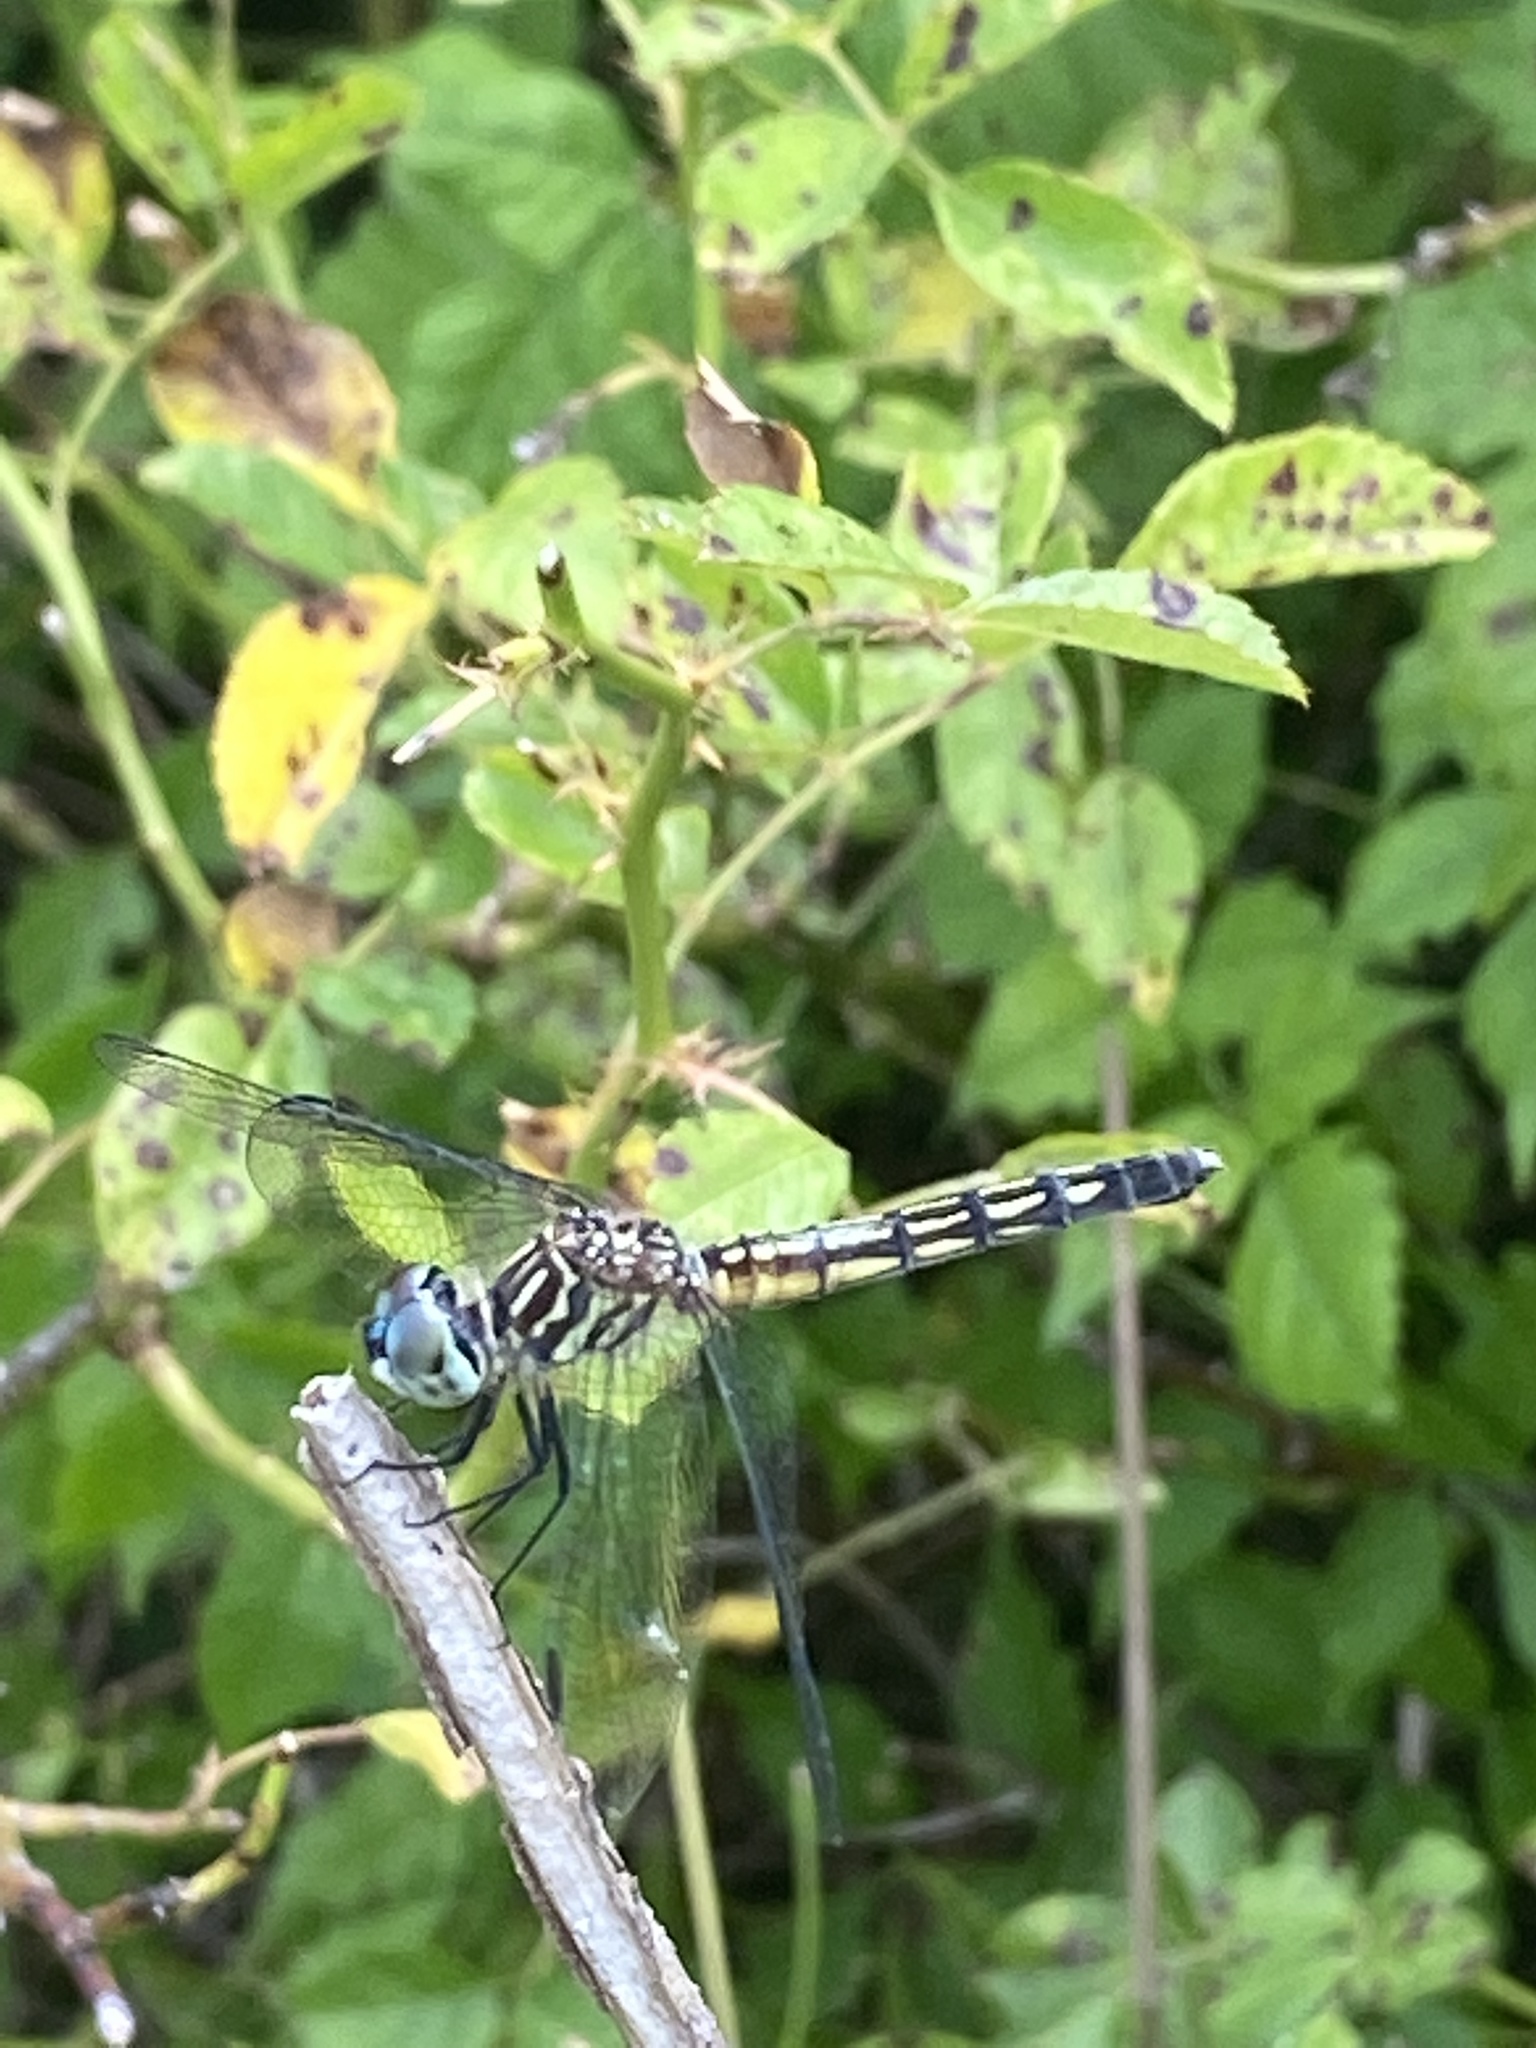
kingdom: Animalia
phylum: Arthropoda
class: Insecta
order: Odonata
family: Libellulidae
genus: Pachydiplax
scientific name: Pachydiplax longipennis
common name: Blue dasher
